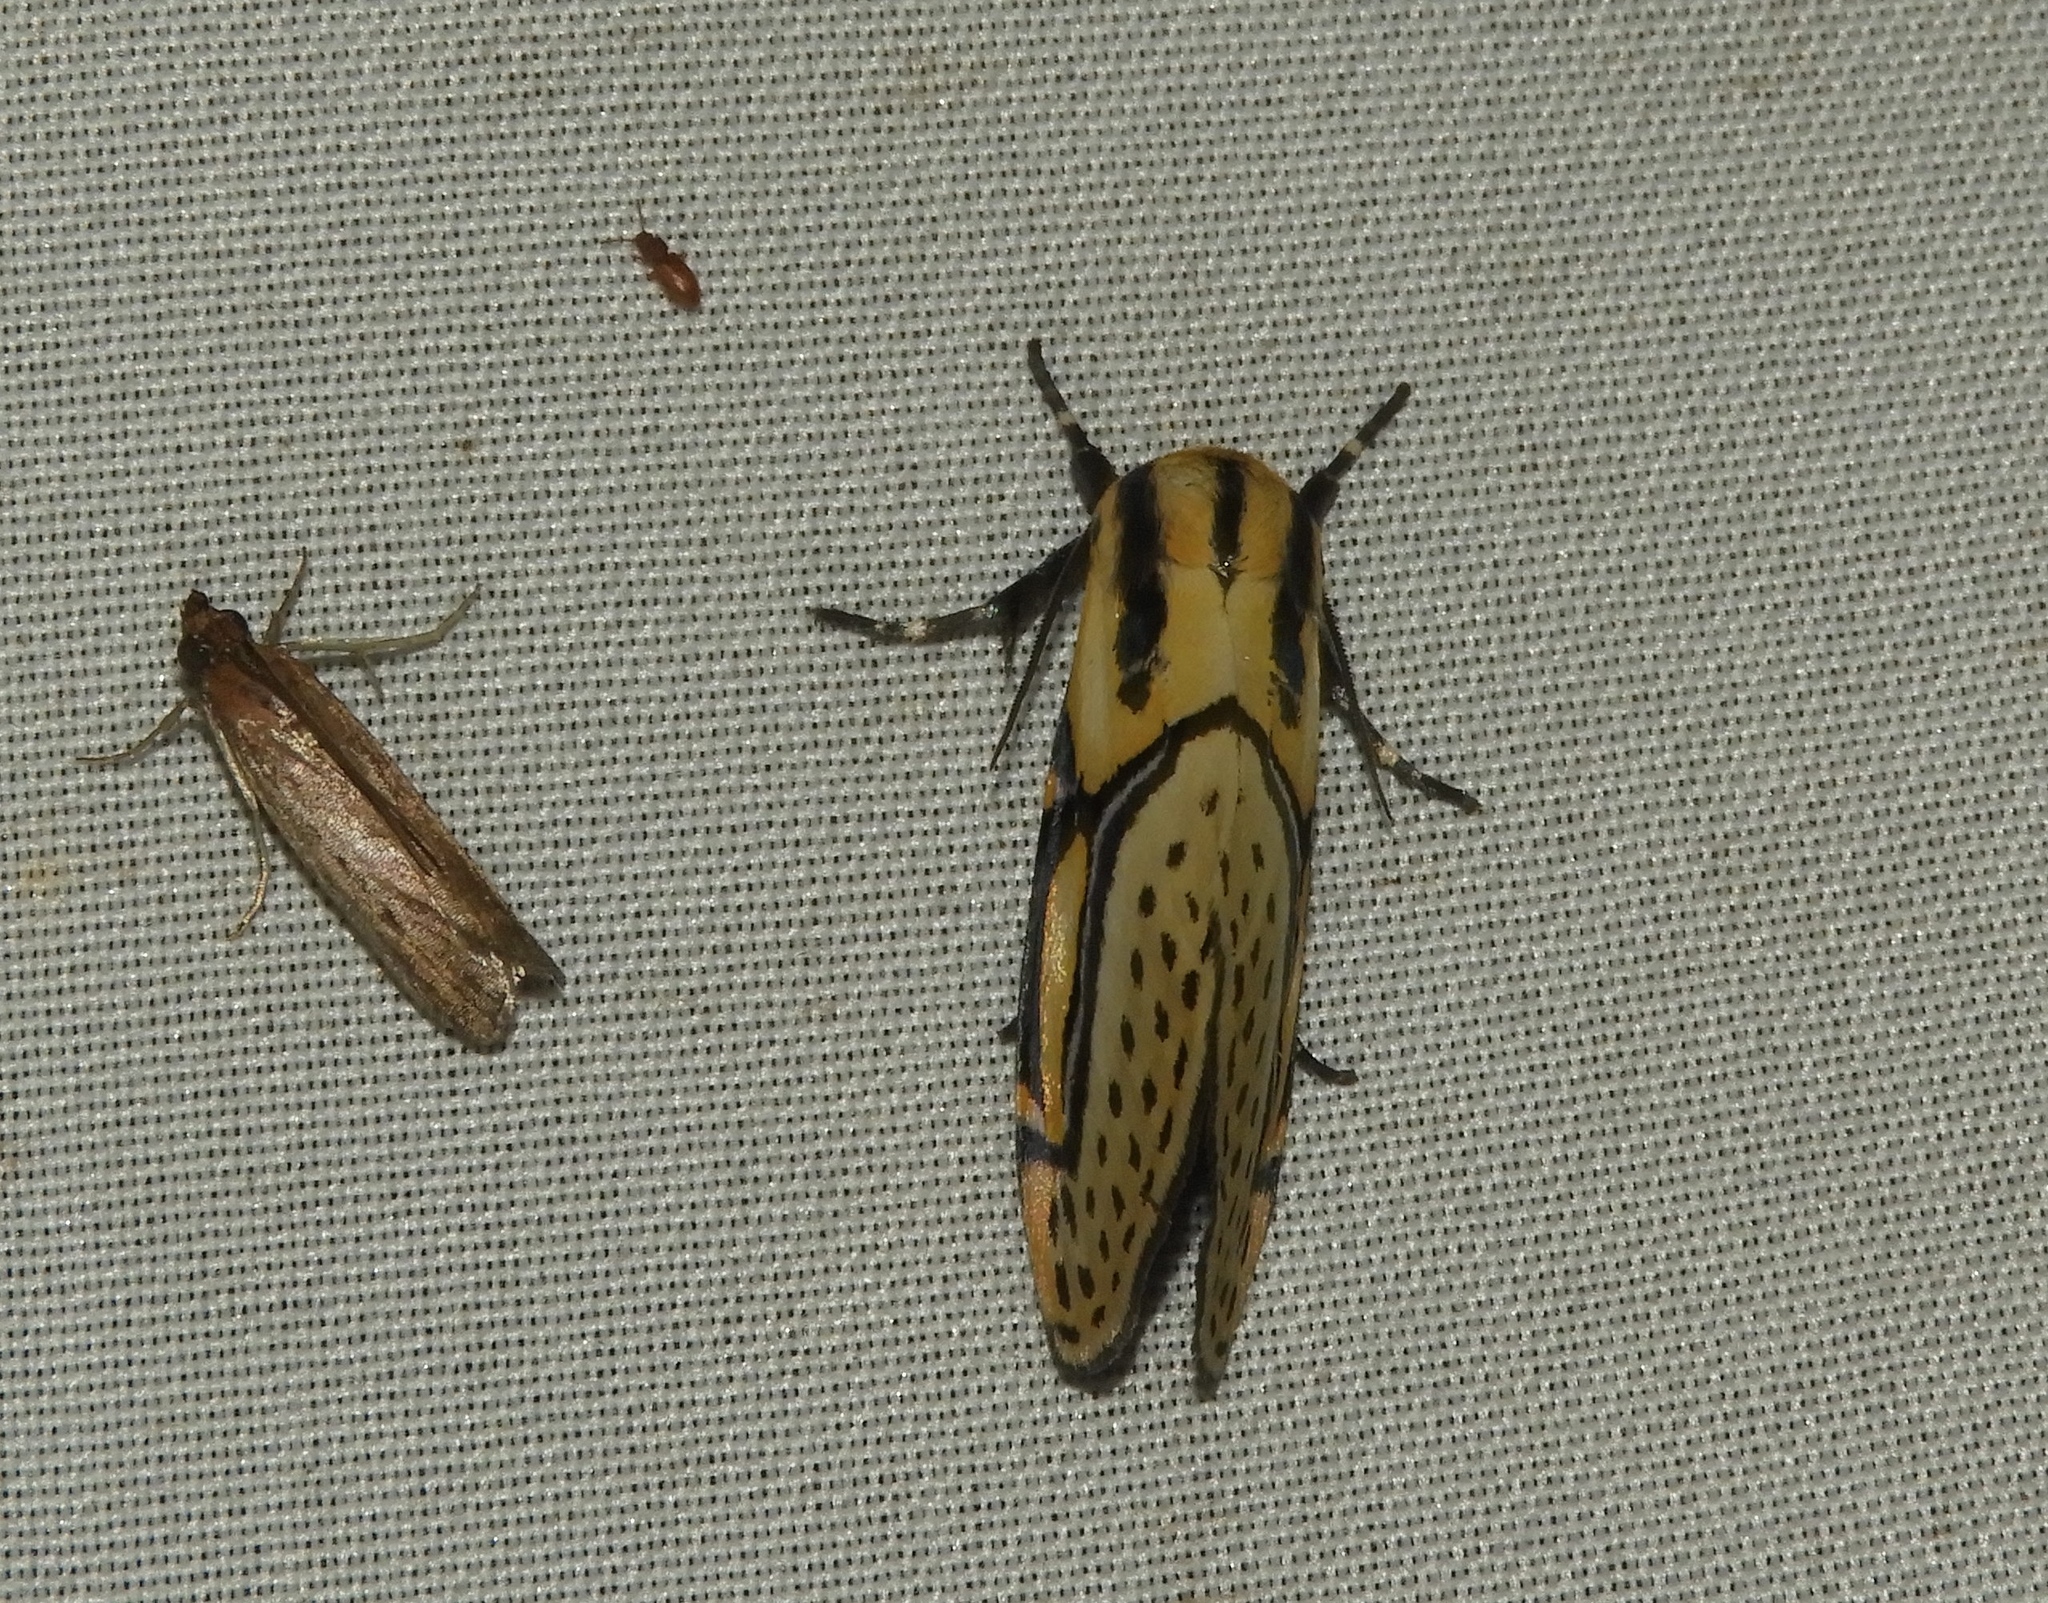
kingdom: Animalia
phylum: Arthropoda
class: Insecta
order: Lepidoptera
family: Erebidae
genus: Diphthera
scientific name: Diphthera festiva
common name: Hieroglyphic moth
